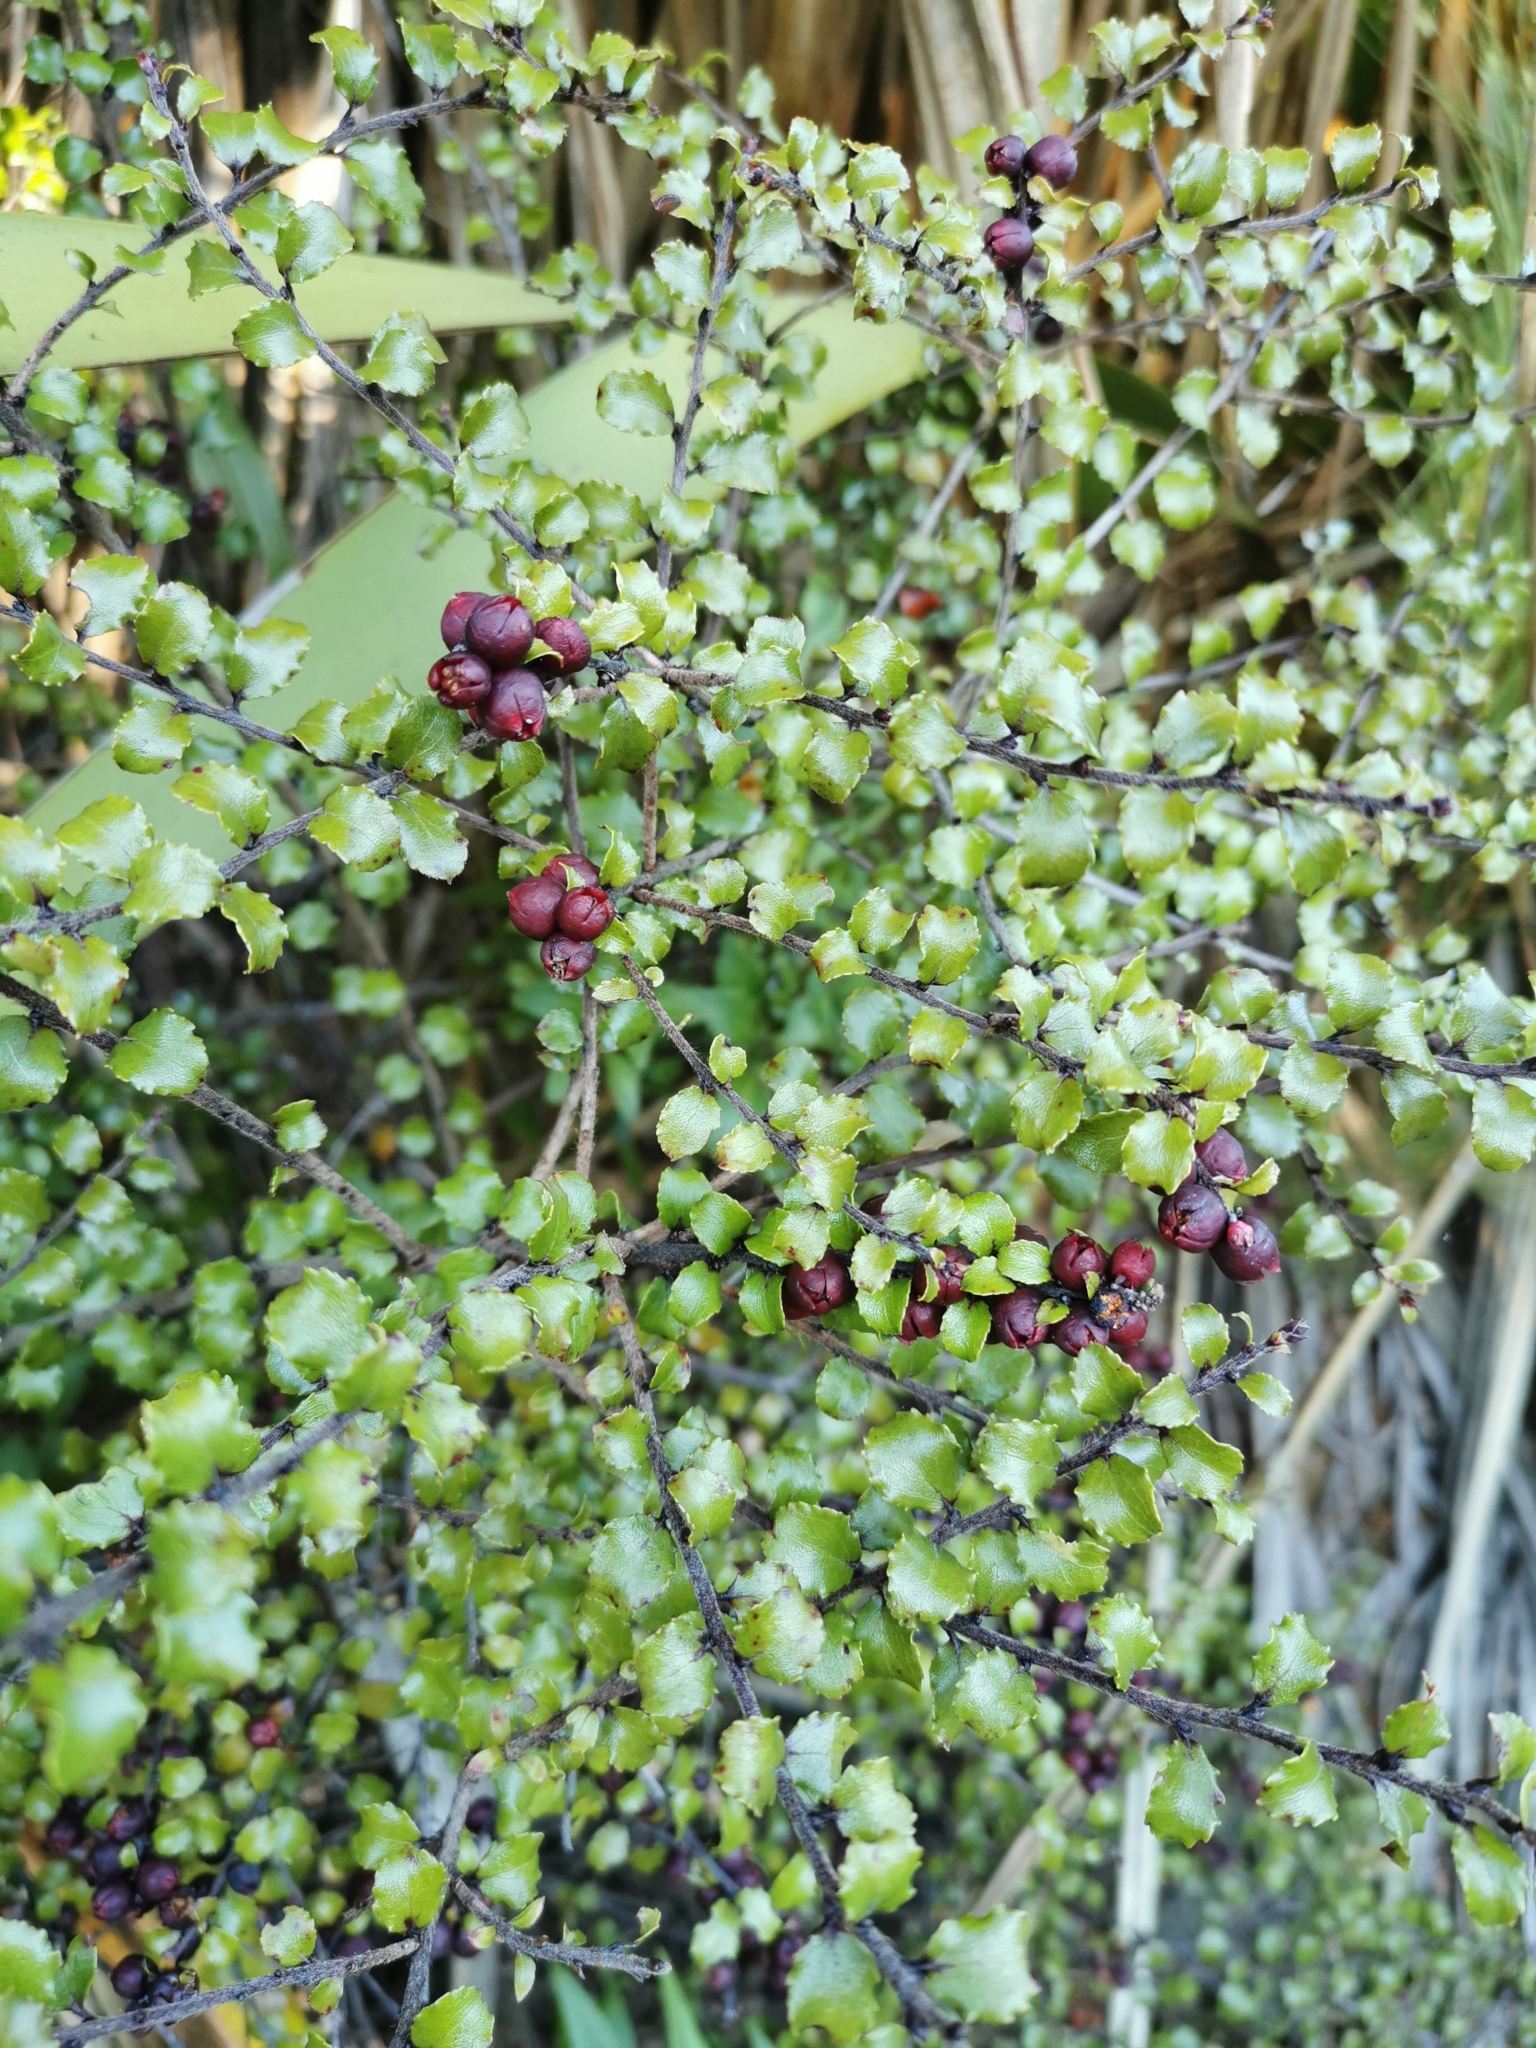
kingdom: Plantae
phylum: Tracheophyta
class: Magnoliopsida
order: Ericales
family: Ericaceae
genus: Gaultheria
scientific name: Gaultheria antipoda
